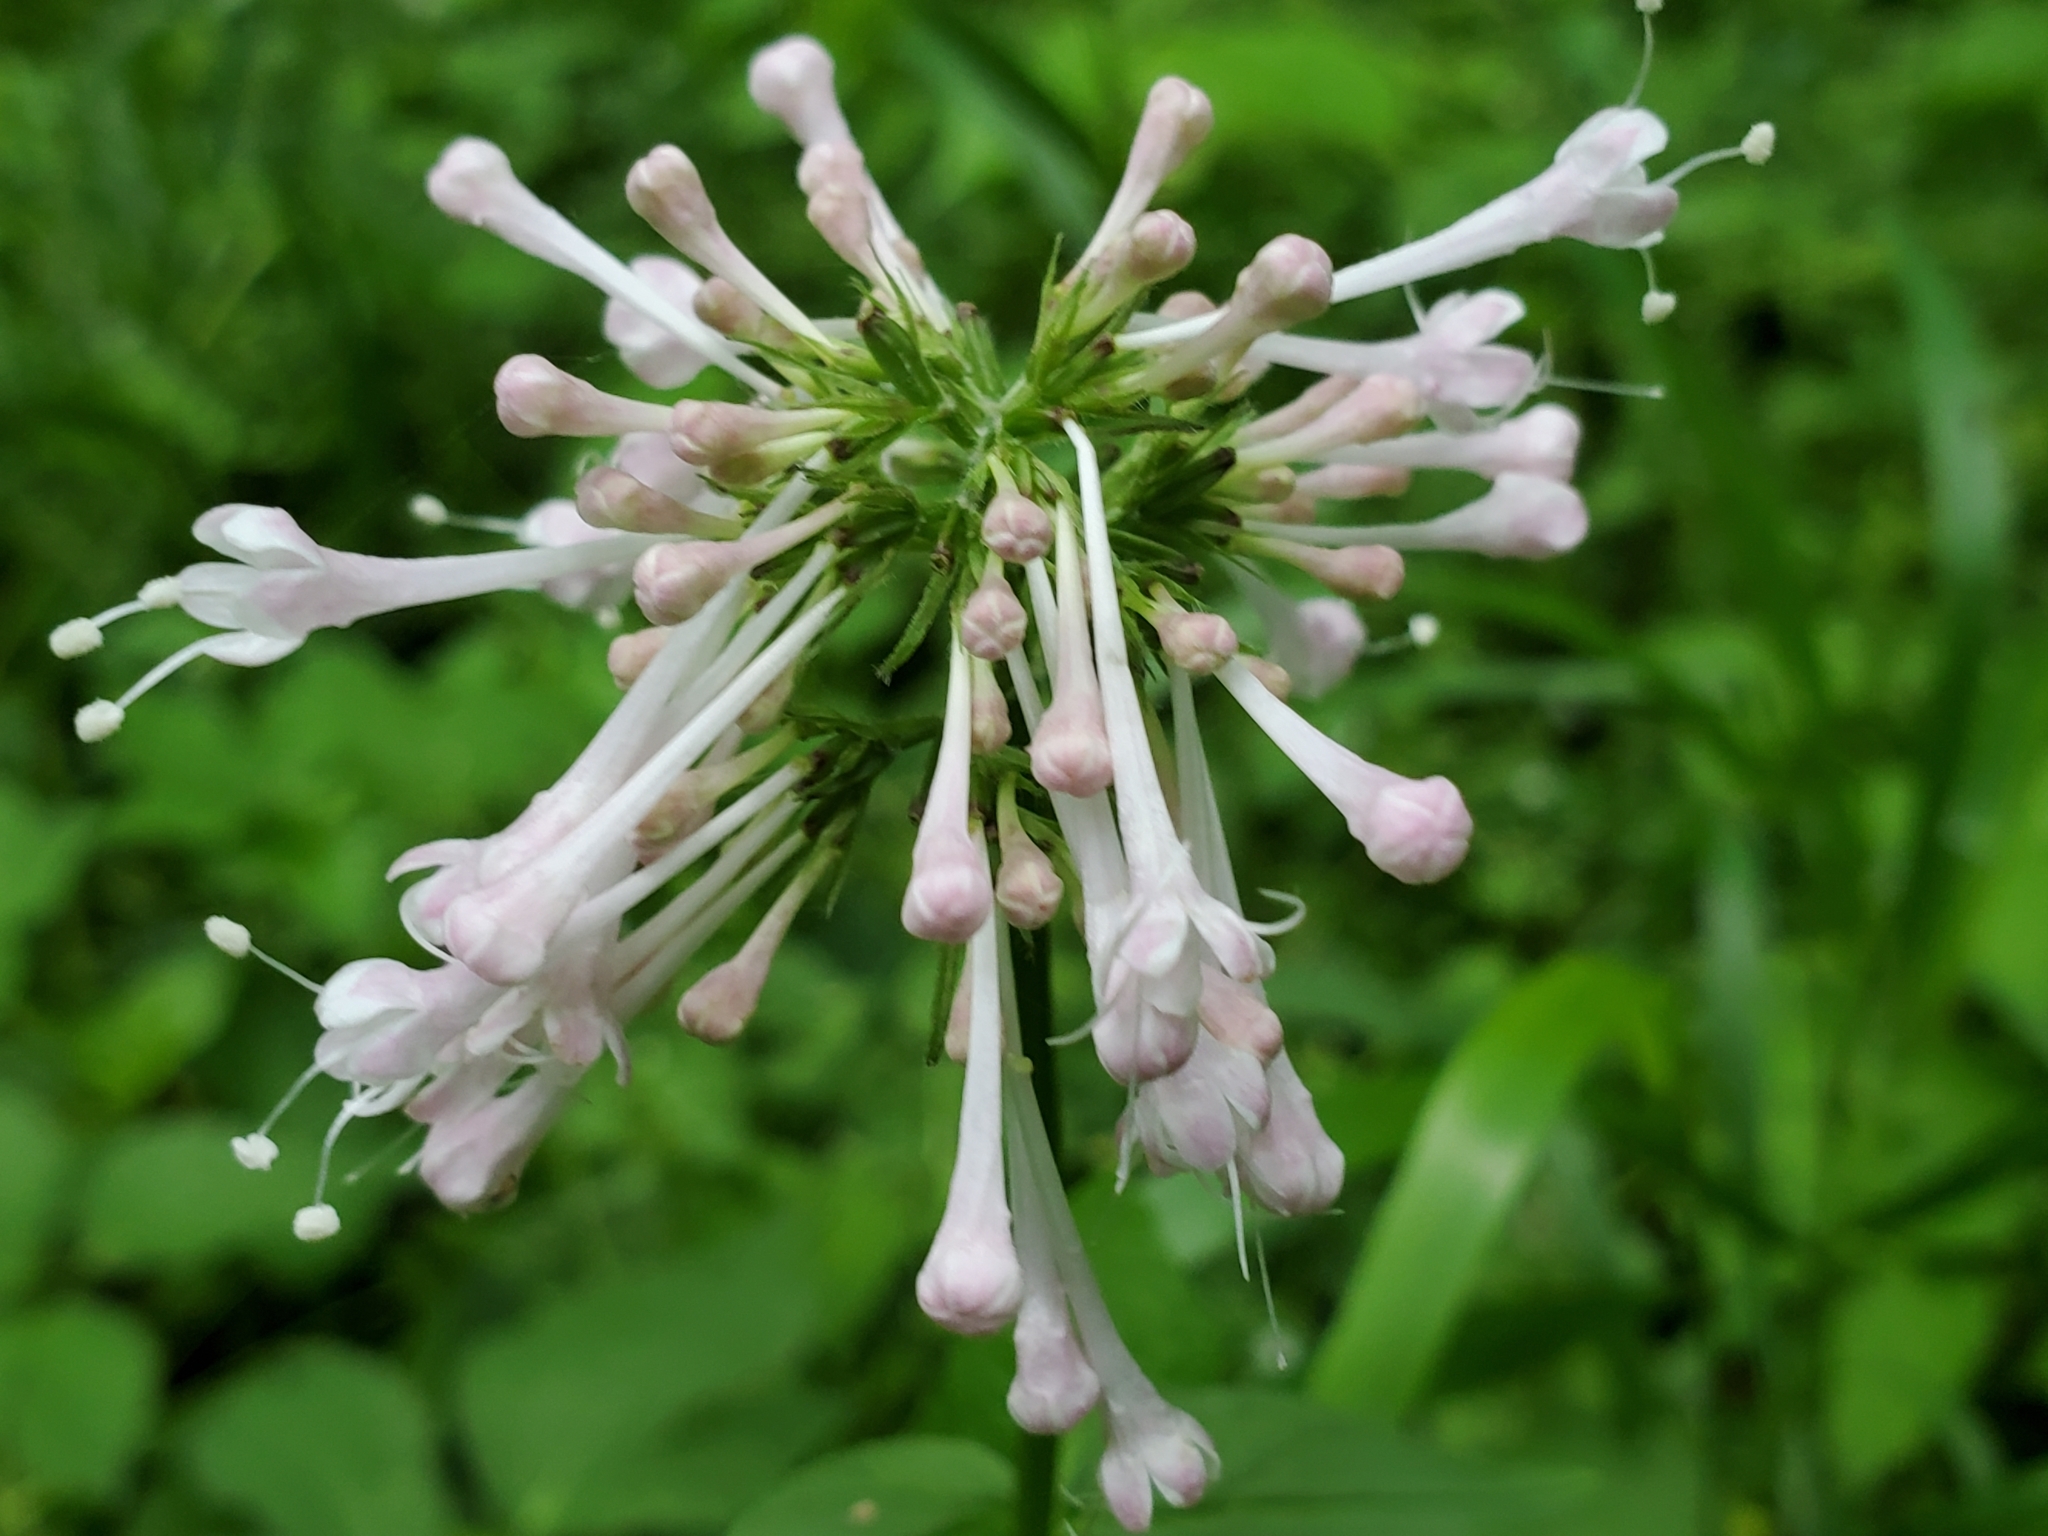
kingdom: Plantae
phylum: Tracheophyta
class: Magnoliopsida
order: Dipsacales
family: Caprifoliaceae
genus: Valeriana
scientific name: Valeriana pauciflora
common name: Long-tube valeriana
